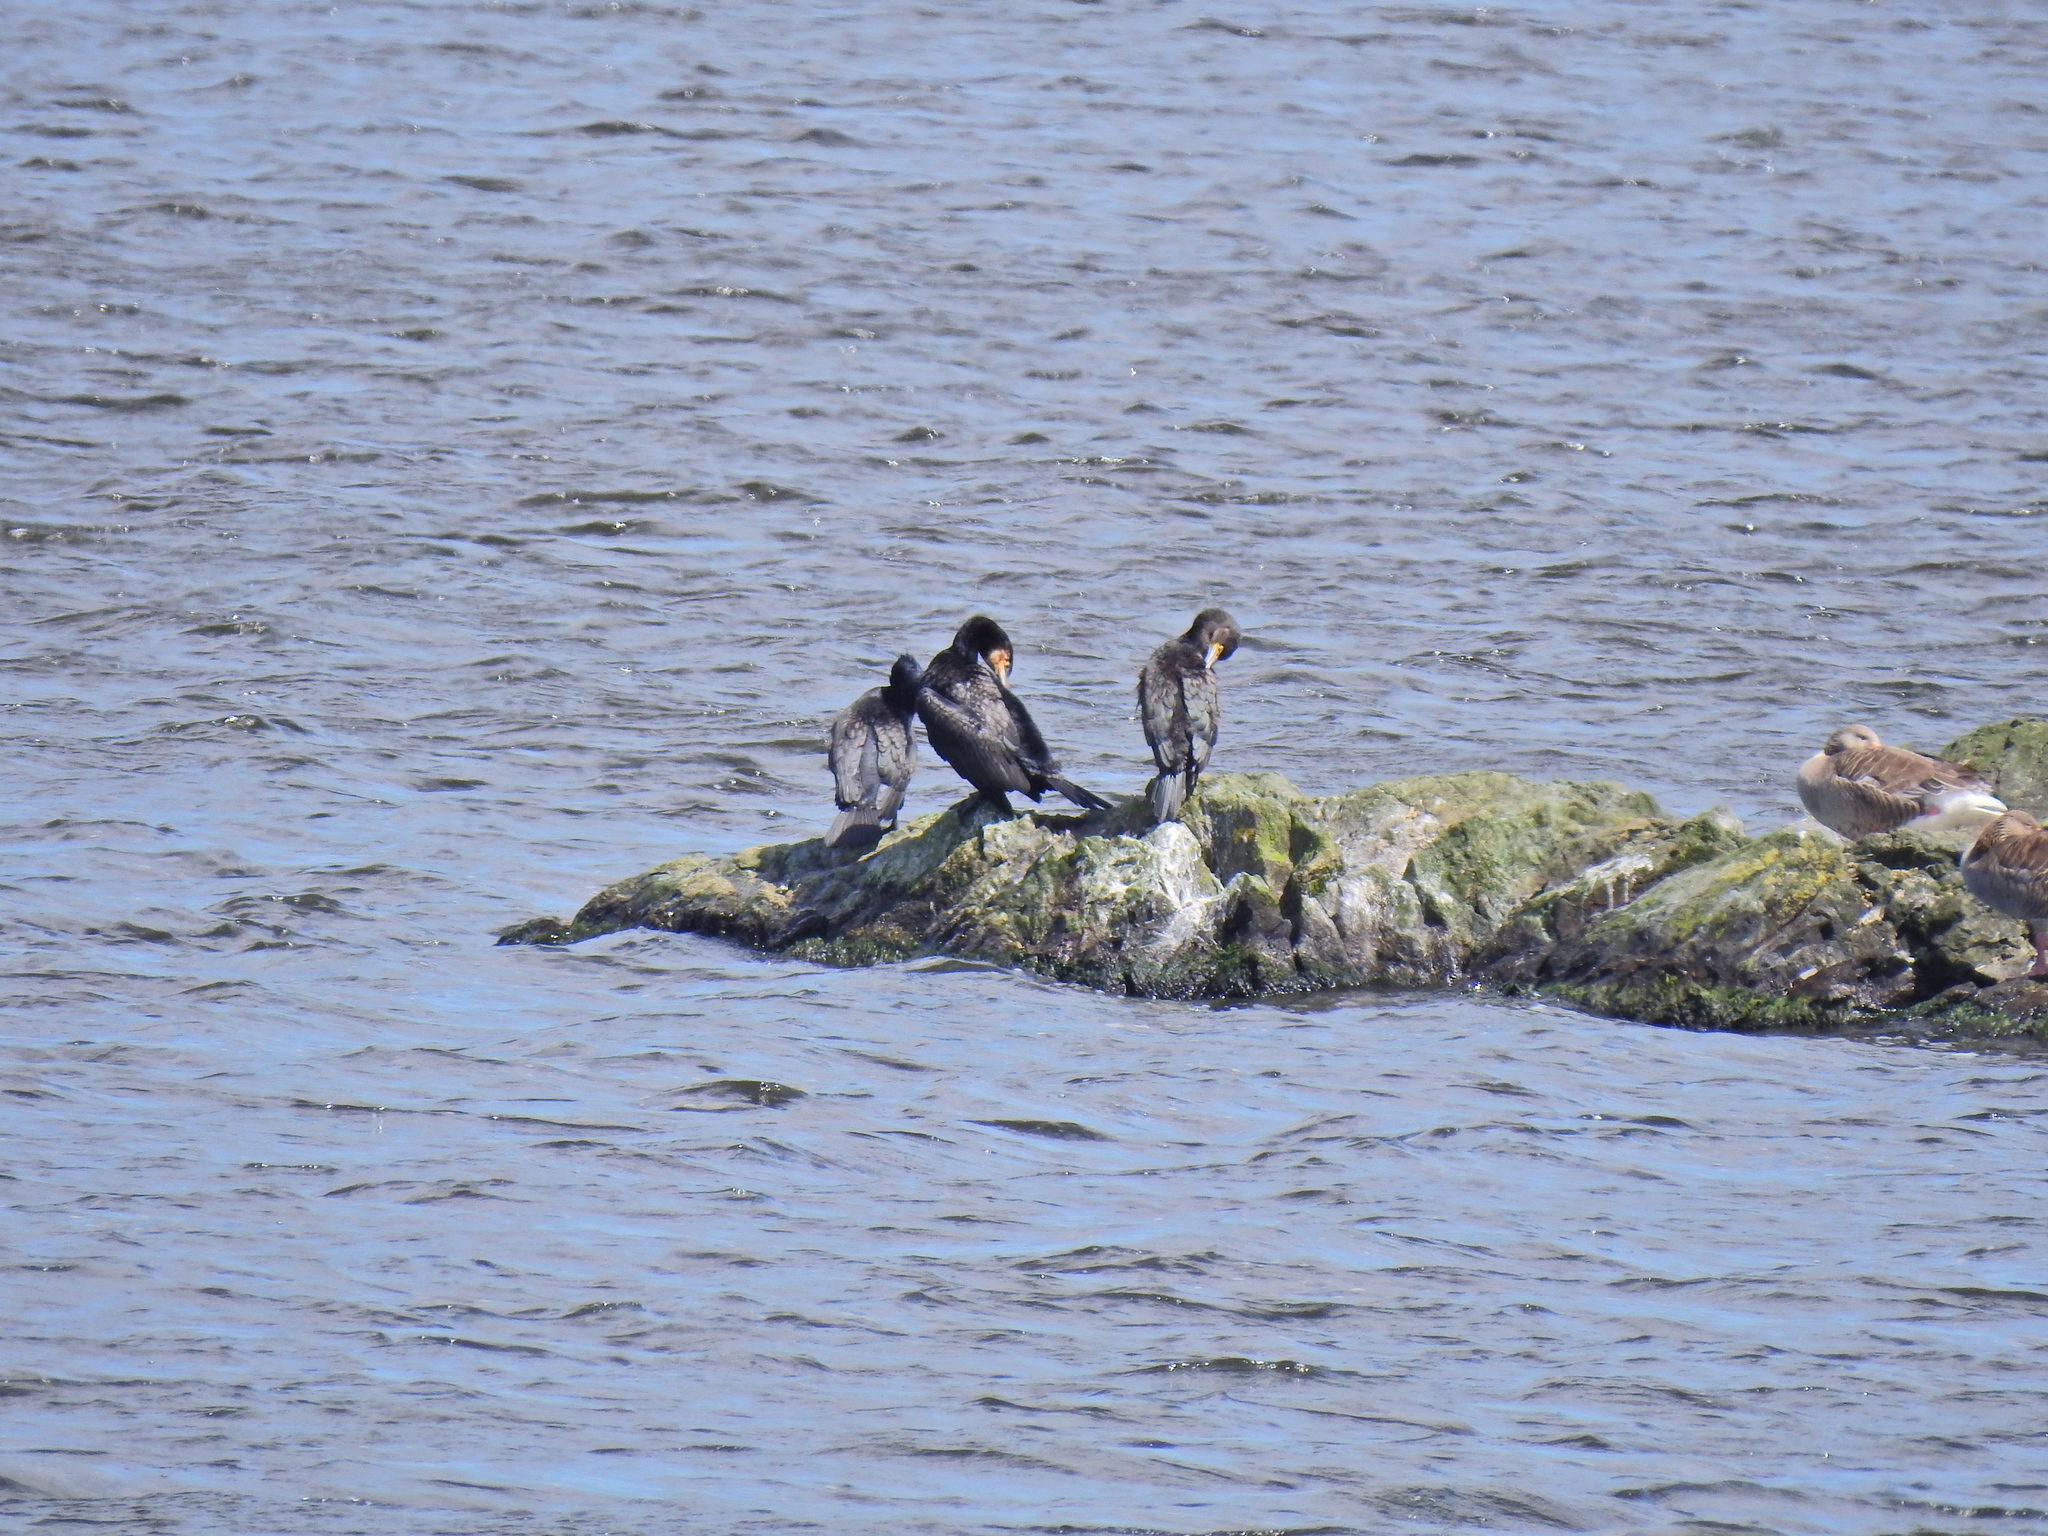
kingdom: Animalia
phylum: Chordata
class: Aves
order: Suliformes
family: Phalacrocoracidae
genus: Phalacrocorax
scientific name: Phalacrocorax carbo
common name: Great cormorant
